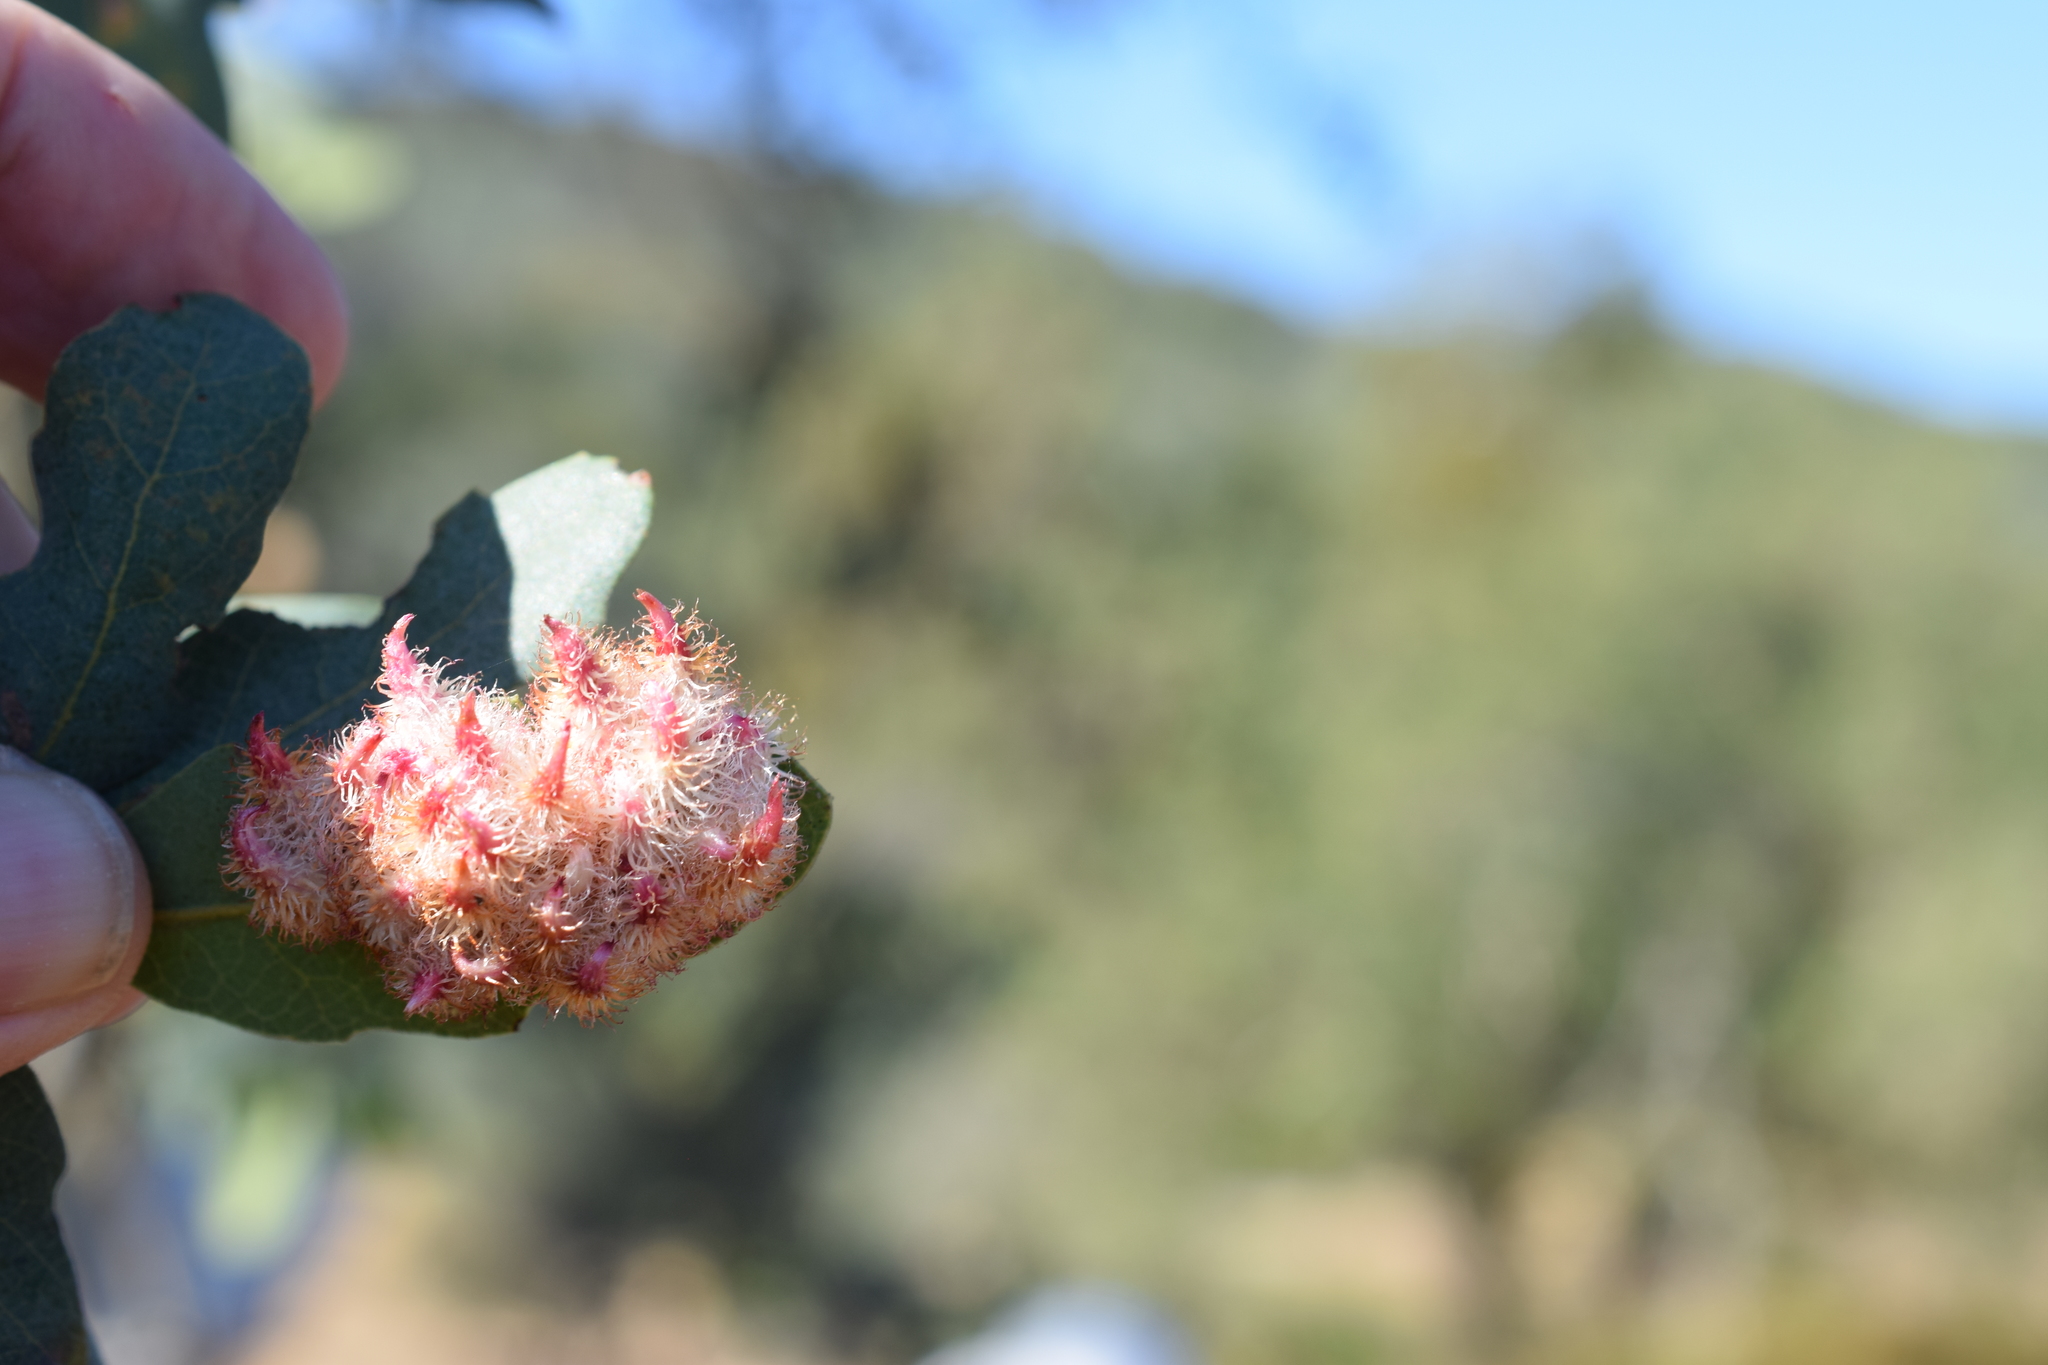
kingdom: Animalia
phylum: Arthropoda
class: Insecta
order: Hymenoptera
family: Cynipidae
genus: Andricus
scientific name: Andricus
